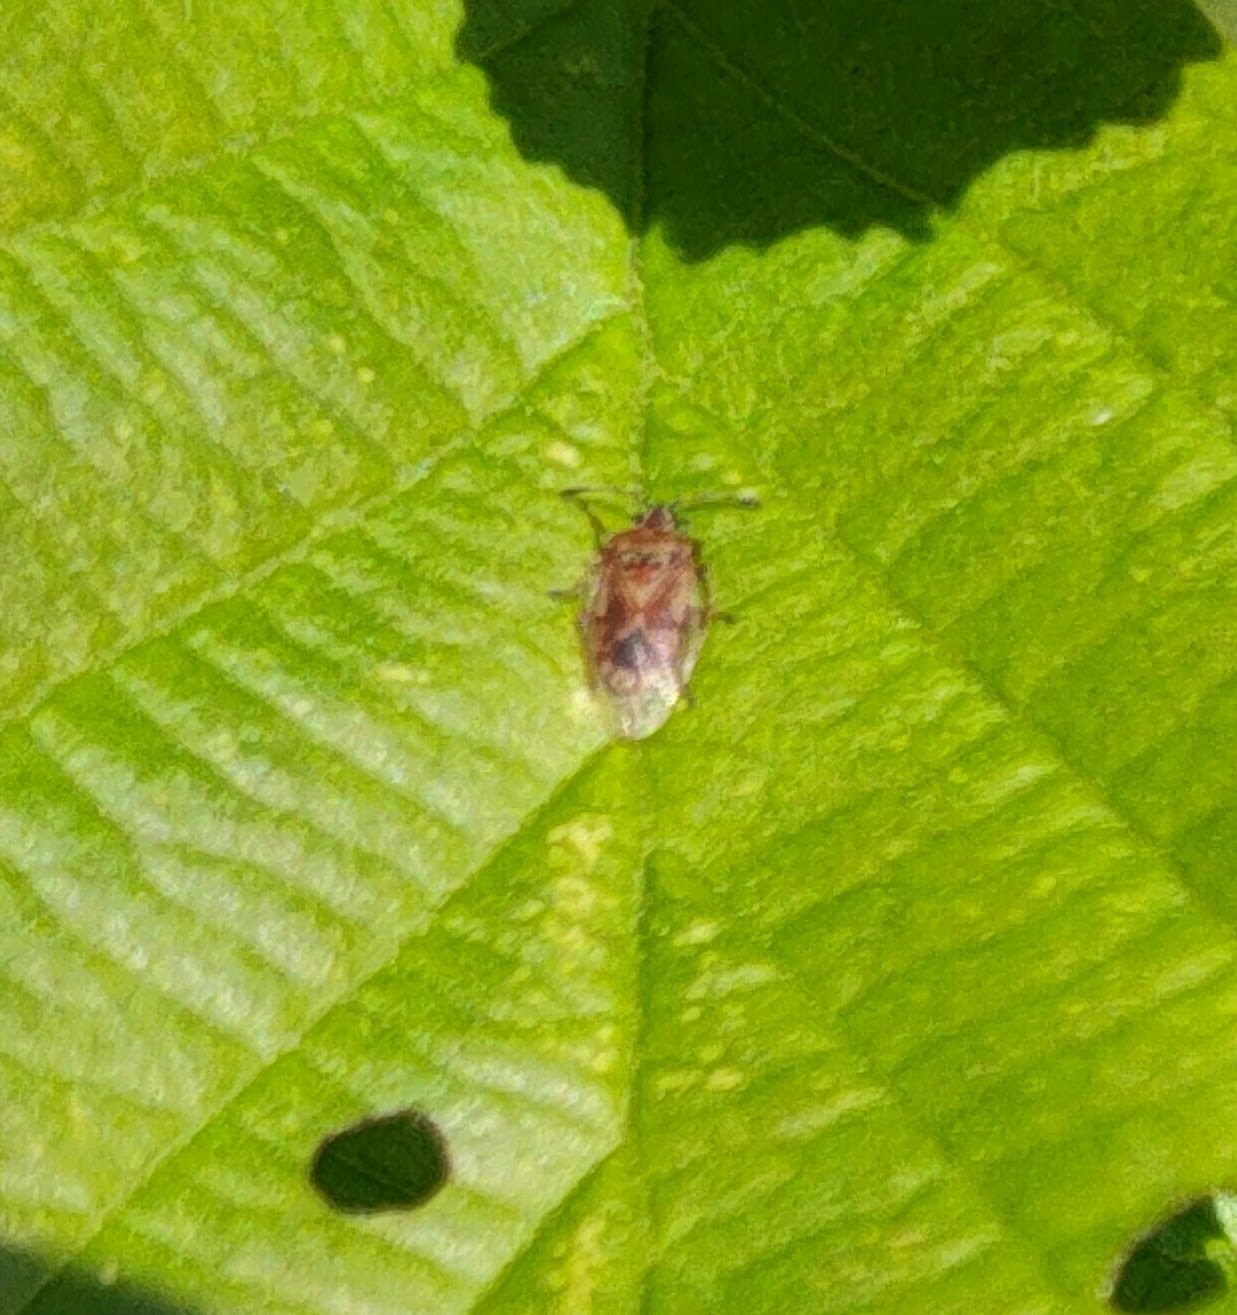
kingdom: Animalia
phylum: Arthropoda
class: Insecta
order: Hemiptera
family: Lygaeidae
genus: Kleidocerys
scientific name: Kleidocerys resedae
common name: Birch catkin bug
